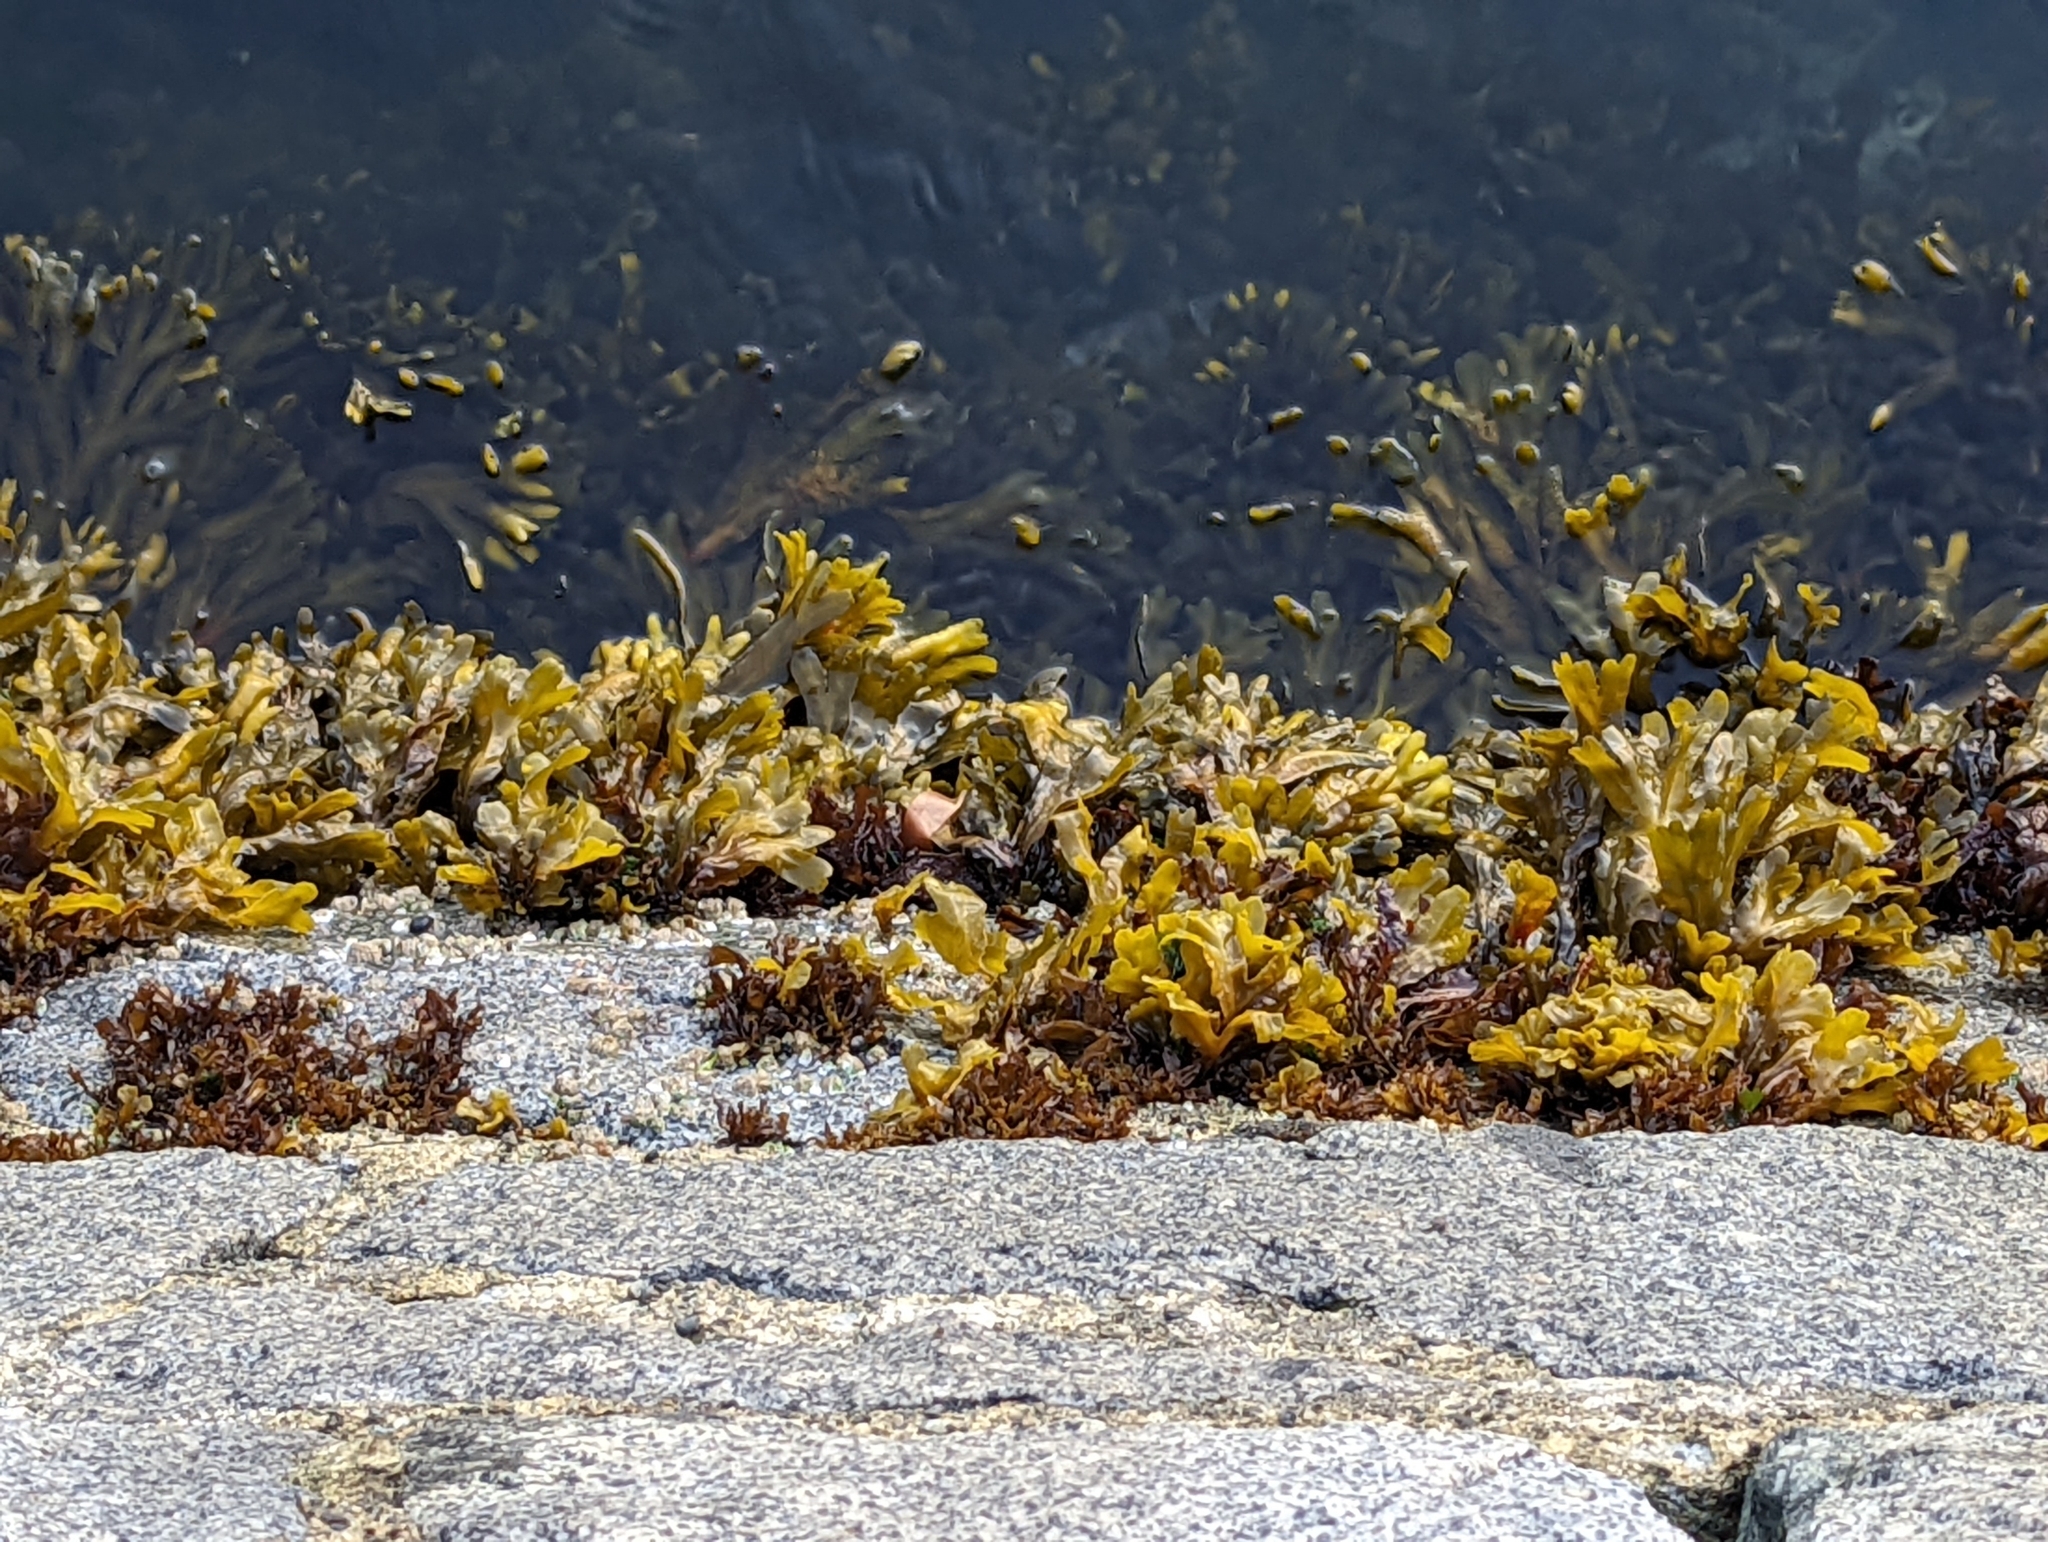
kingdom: Chromista
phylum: Ochrophyta
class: Phaeophyceae
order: Fucales
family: Fucaceae
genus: Fucus
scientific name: Fucus distichus
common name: Rockweed
